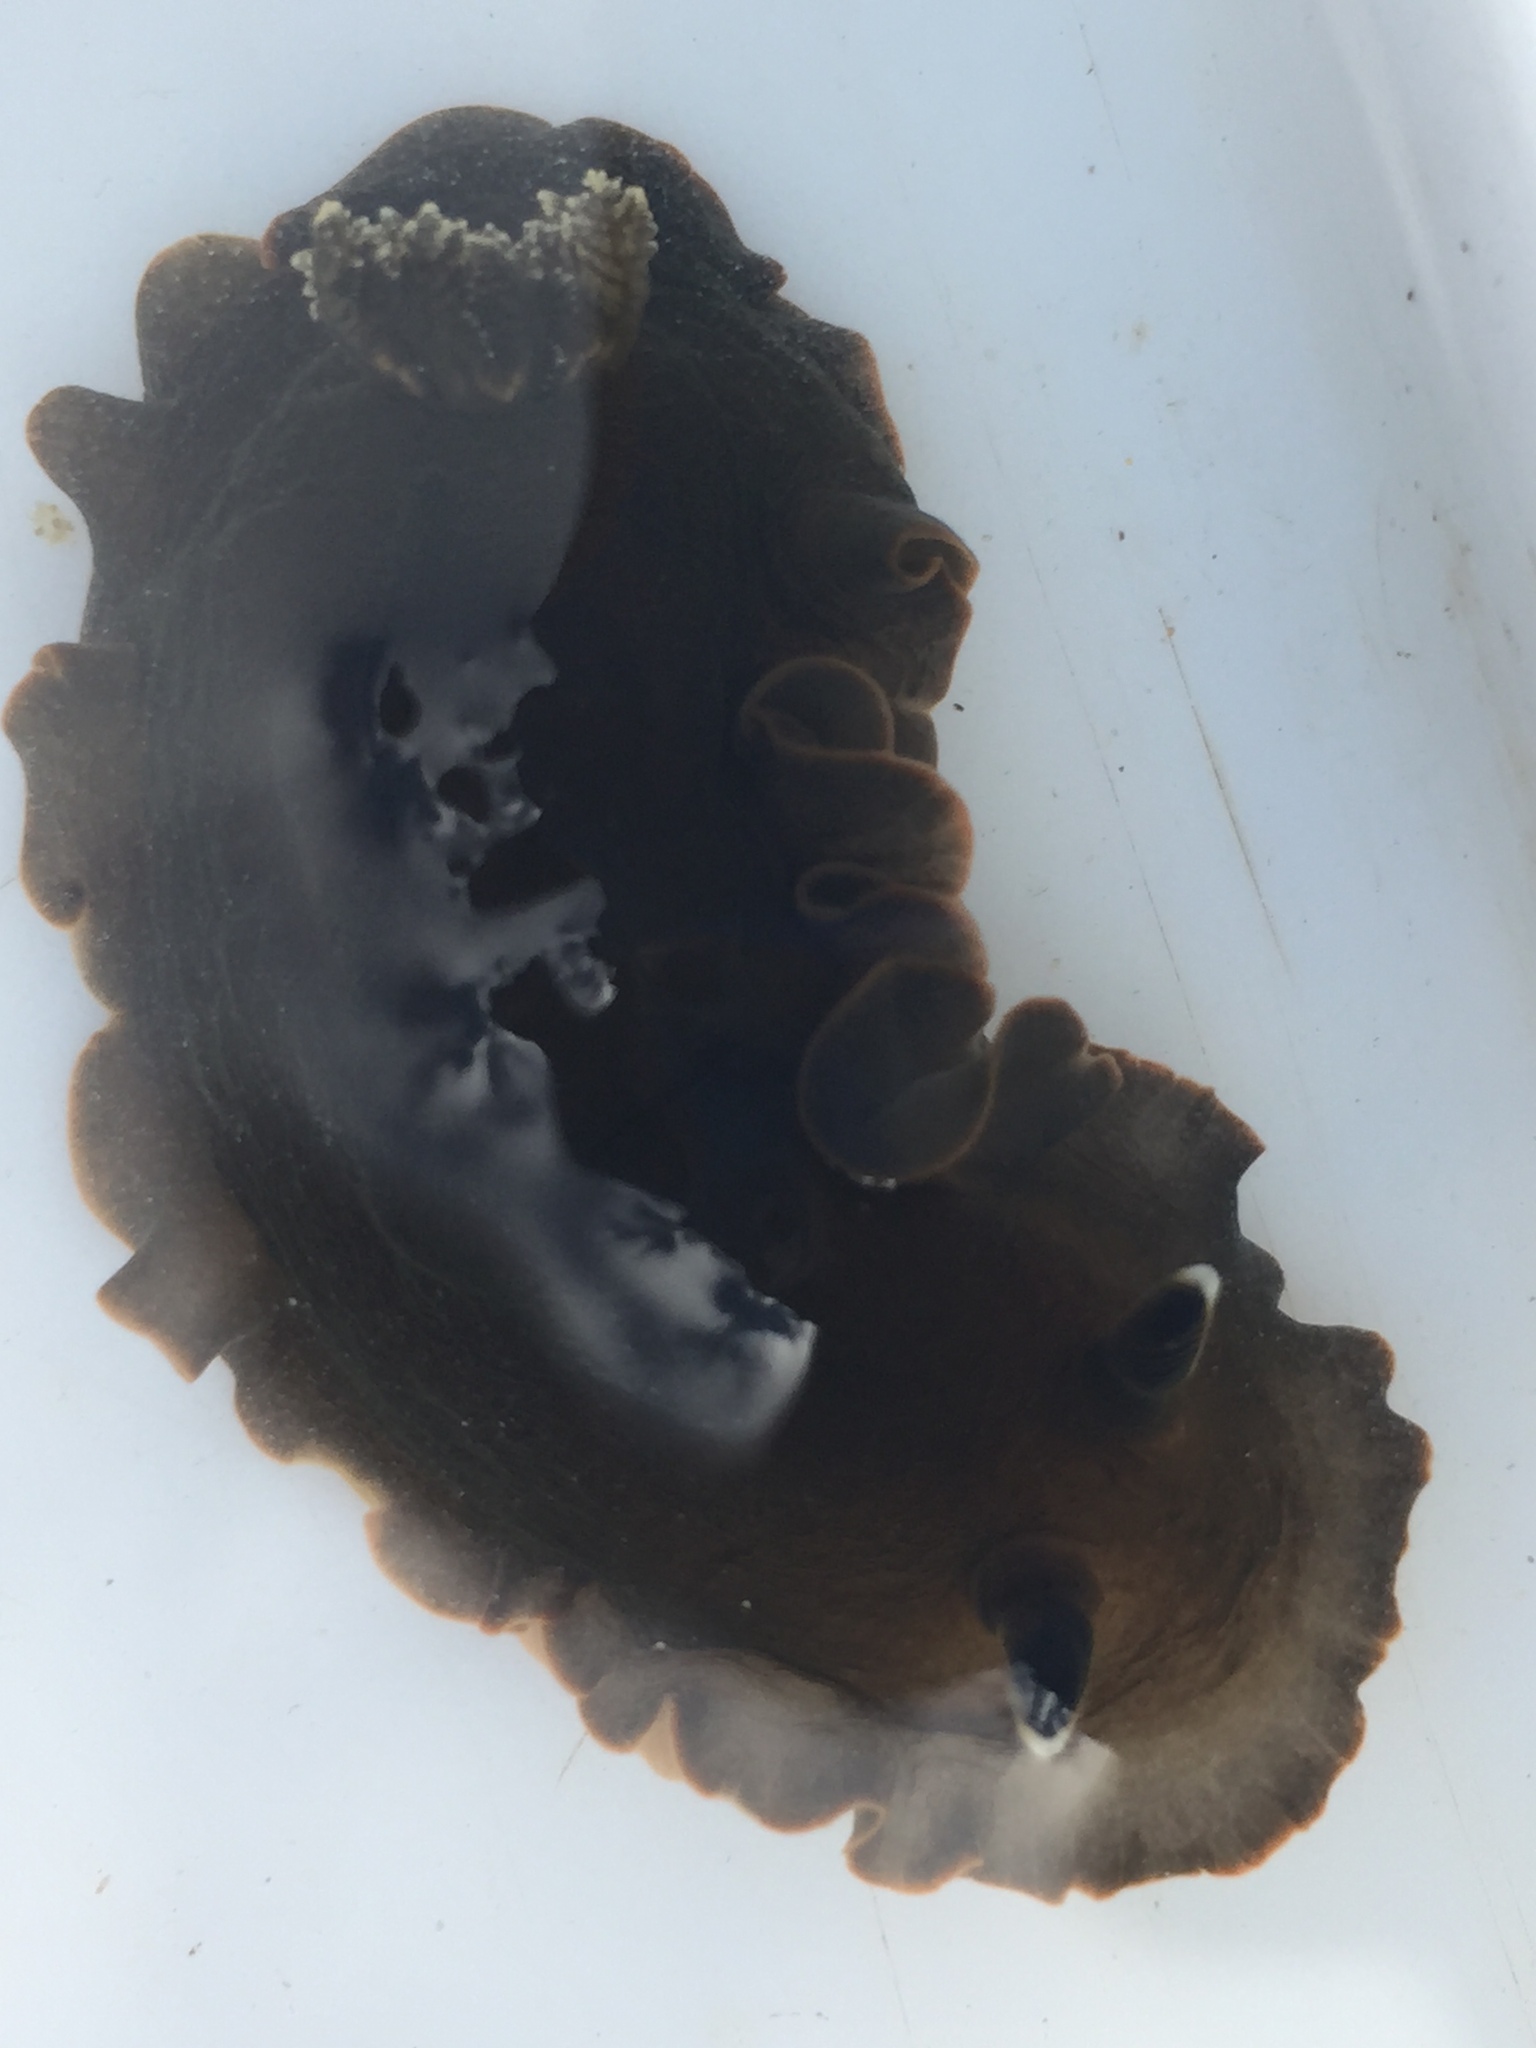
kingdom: Animalia
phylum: Mollusca
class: Gastropoda
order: Nudibranchia
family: Dendrodorididae
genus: Dendrodoris
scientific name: Dendrodoris nigra
